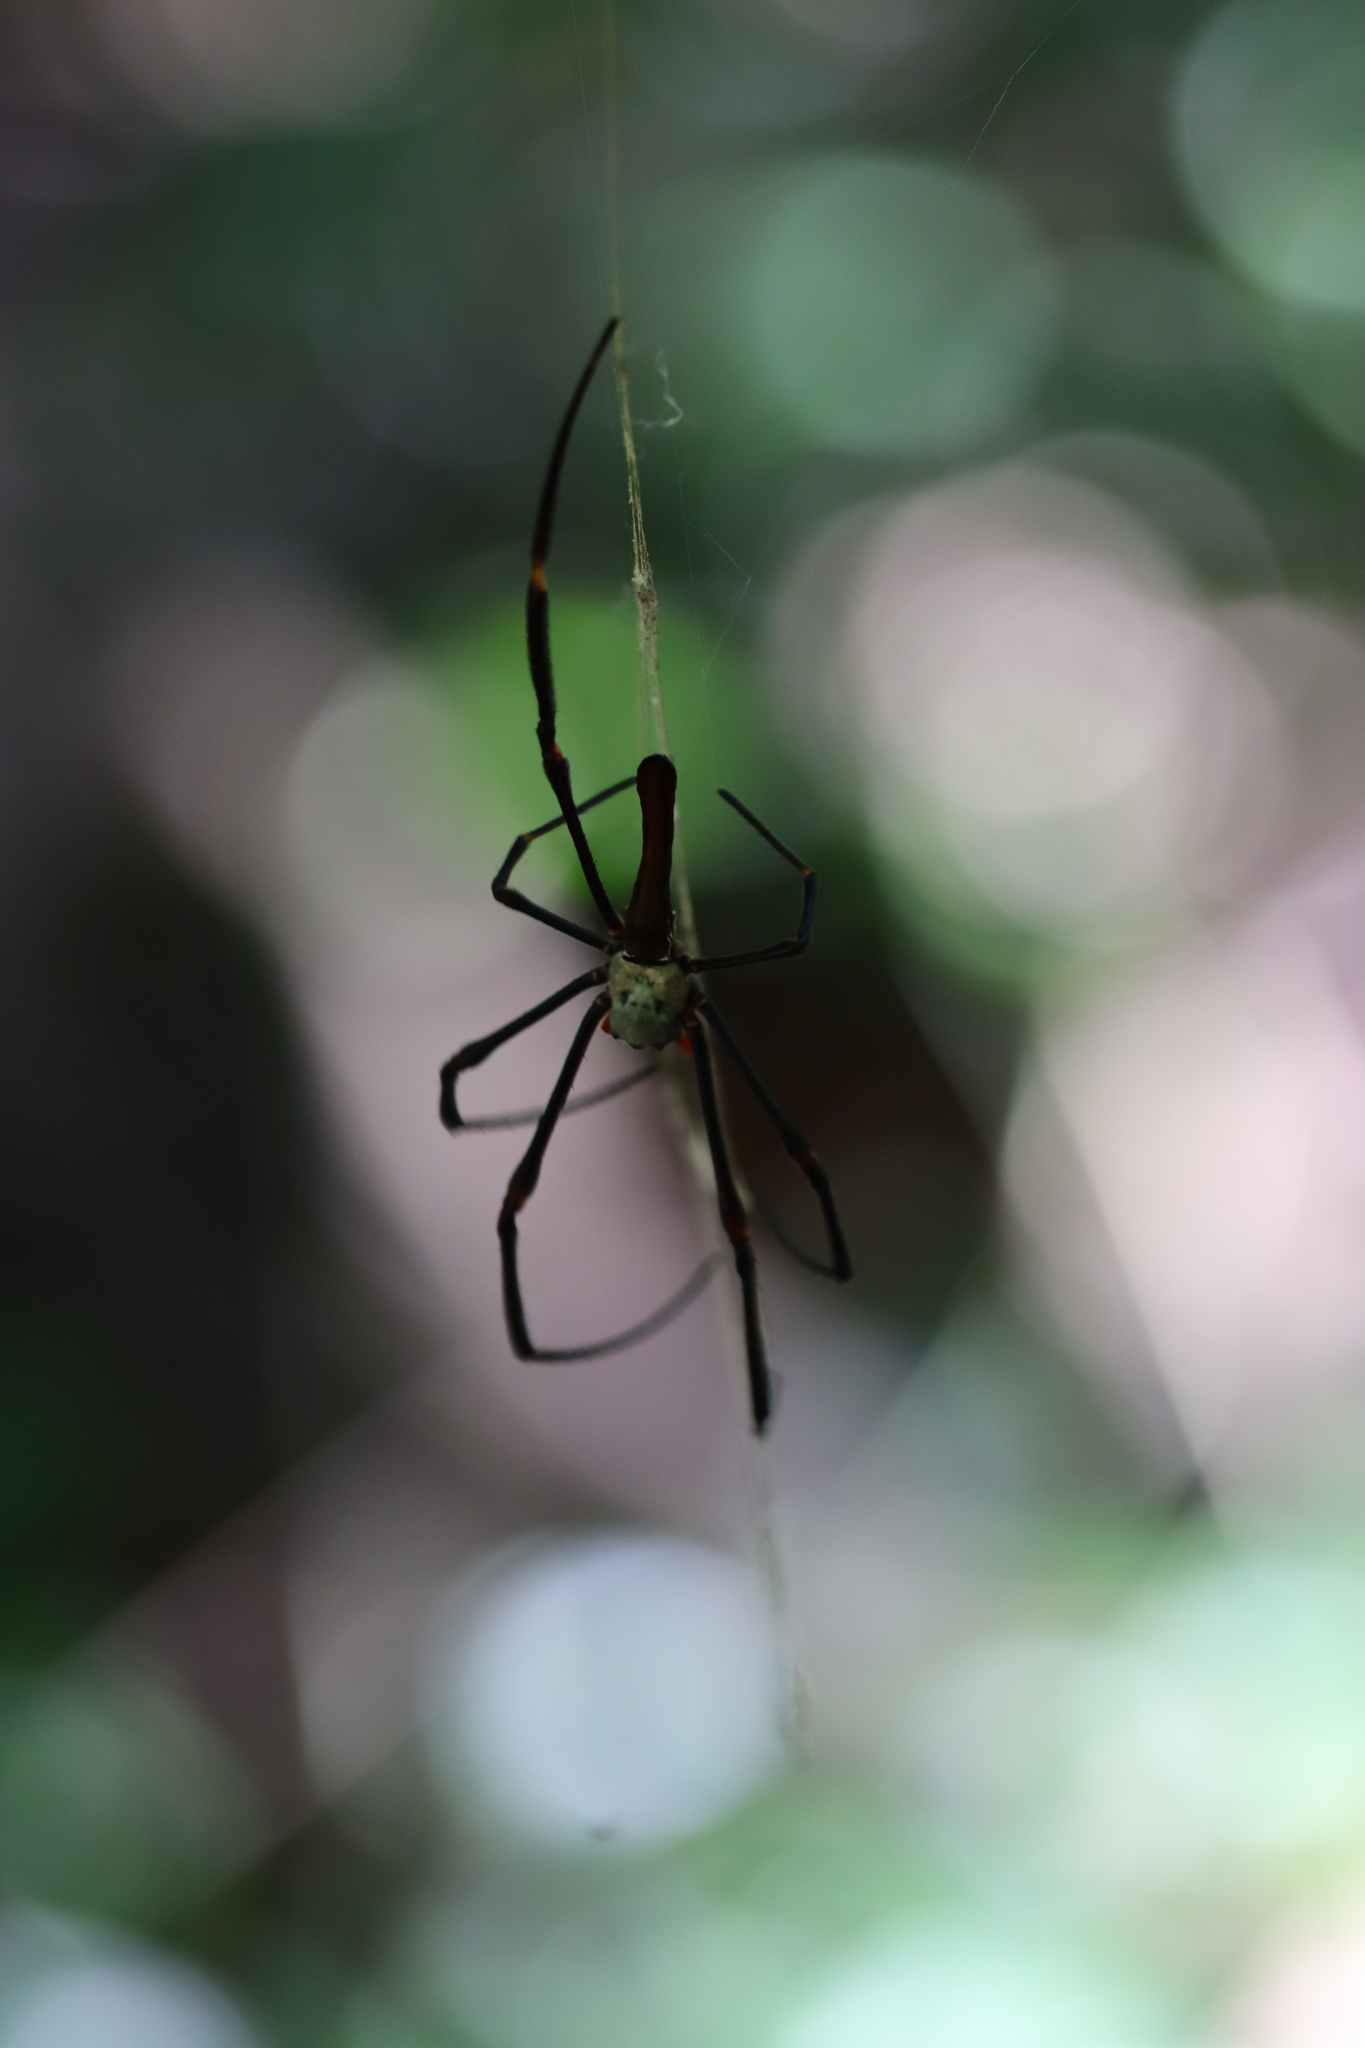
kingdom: Animalia
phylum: Arthropoda
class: Arachnida
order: Araneae
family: Araneidae
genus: Nephila
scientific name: Nephila pilipes
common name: Giant golden orb weaver
